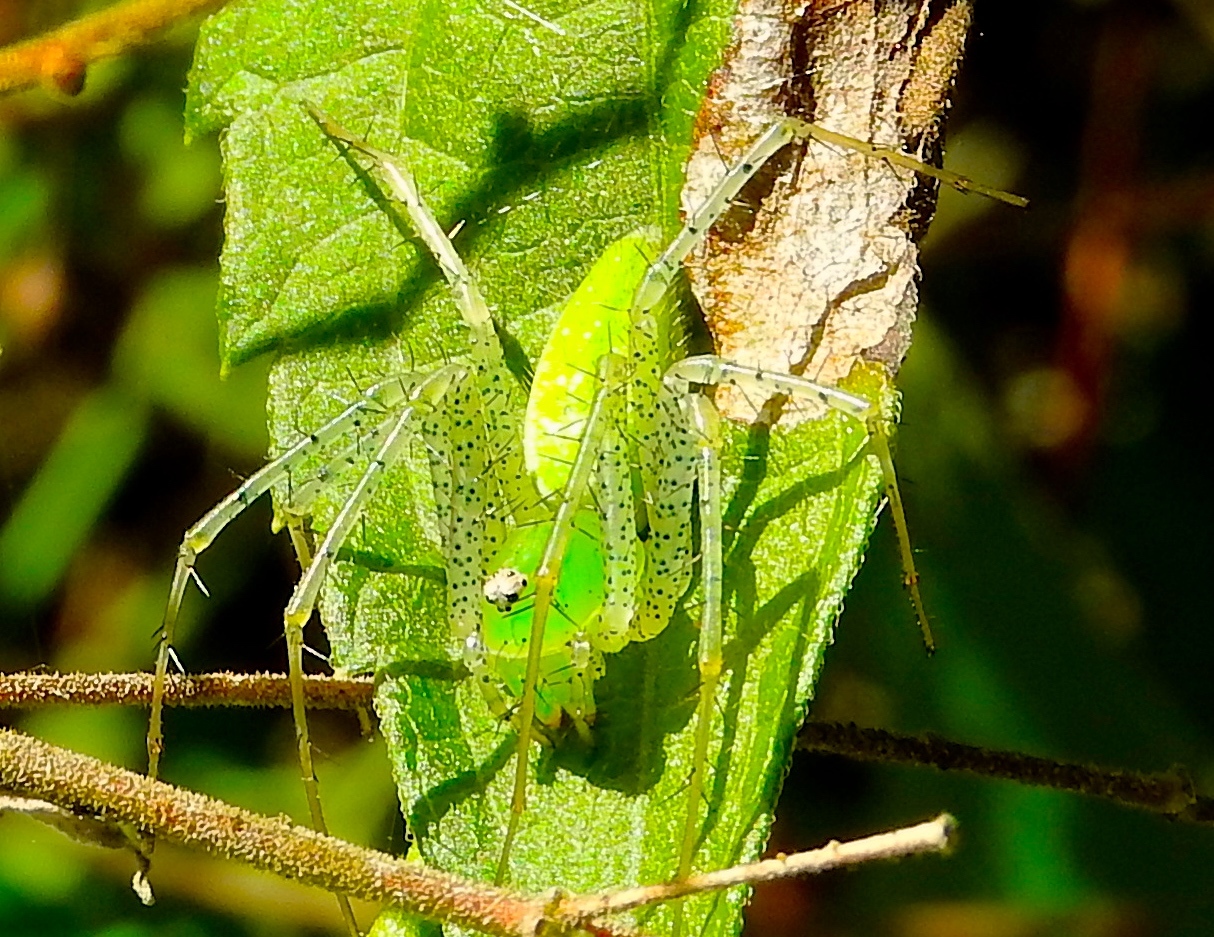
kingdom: Animalia
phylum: Arthropoda
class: Arachnida
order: Araneae
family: Oxyopidae
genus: Peucetia
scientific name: Peucetia viridans
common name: Lynx spiders
